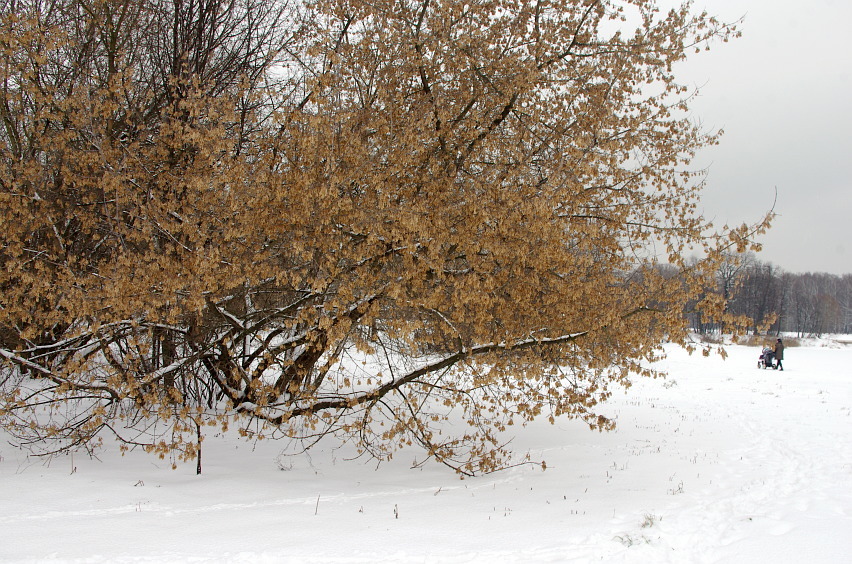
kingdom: Plantae
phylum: Tracheophyta
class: Magnoliopsida
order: Sapindales
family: Sapindaceae
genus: Acer
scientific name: Acer negundo
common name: Ashleaf maple
